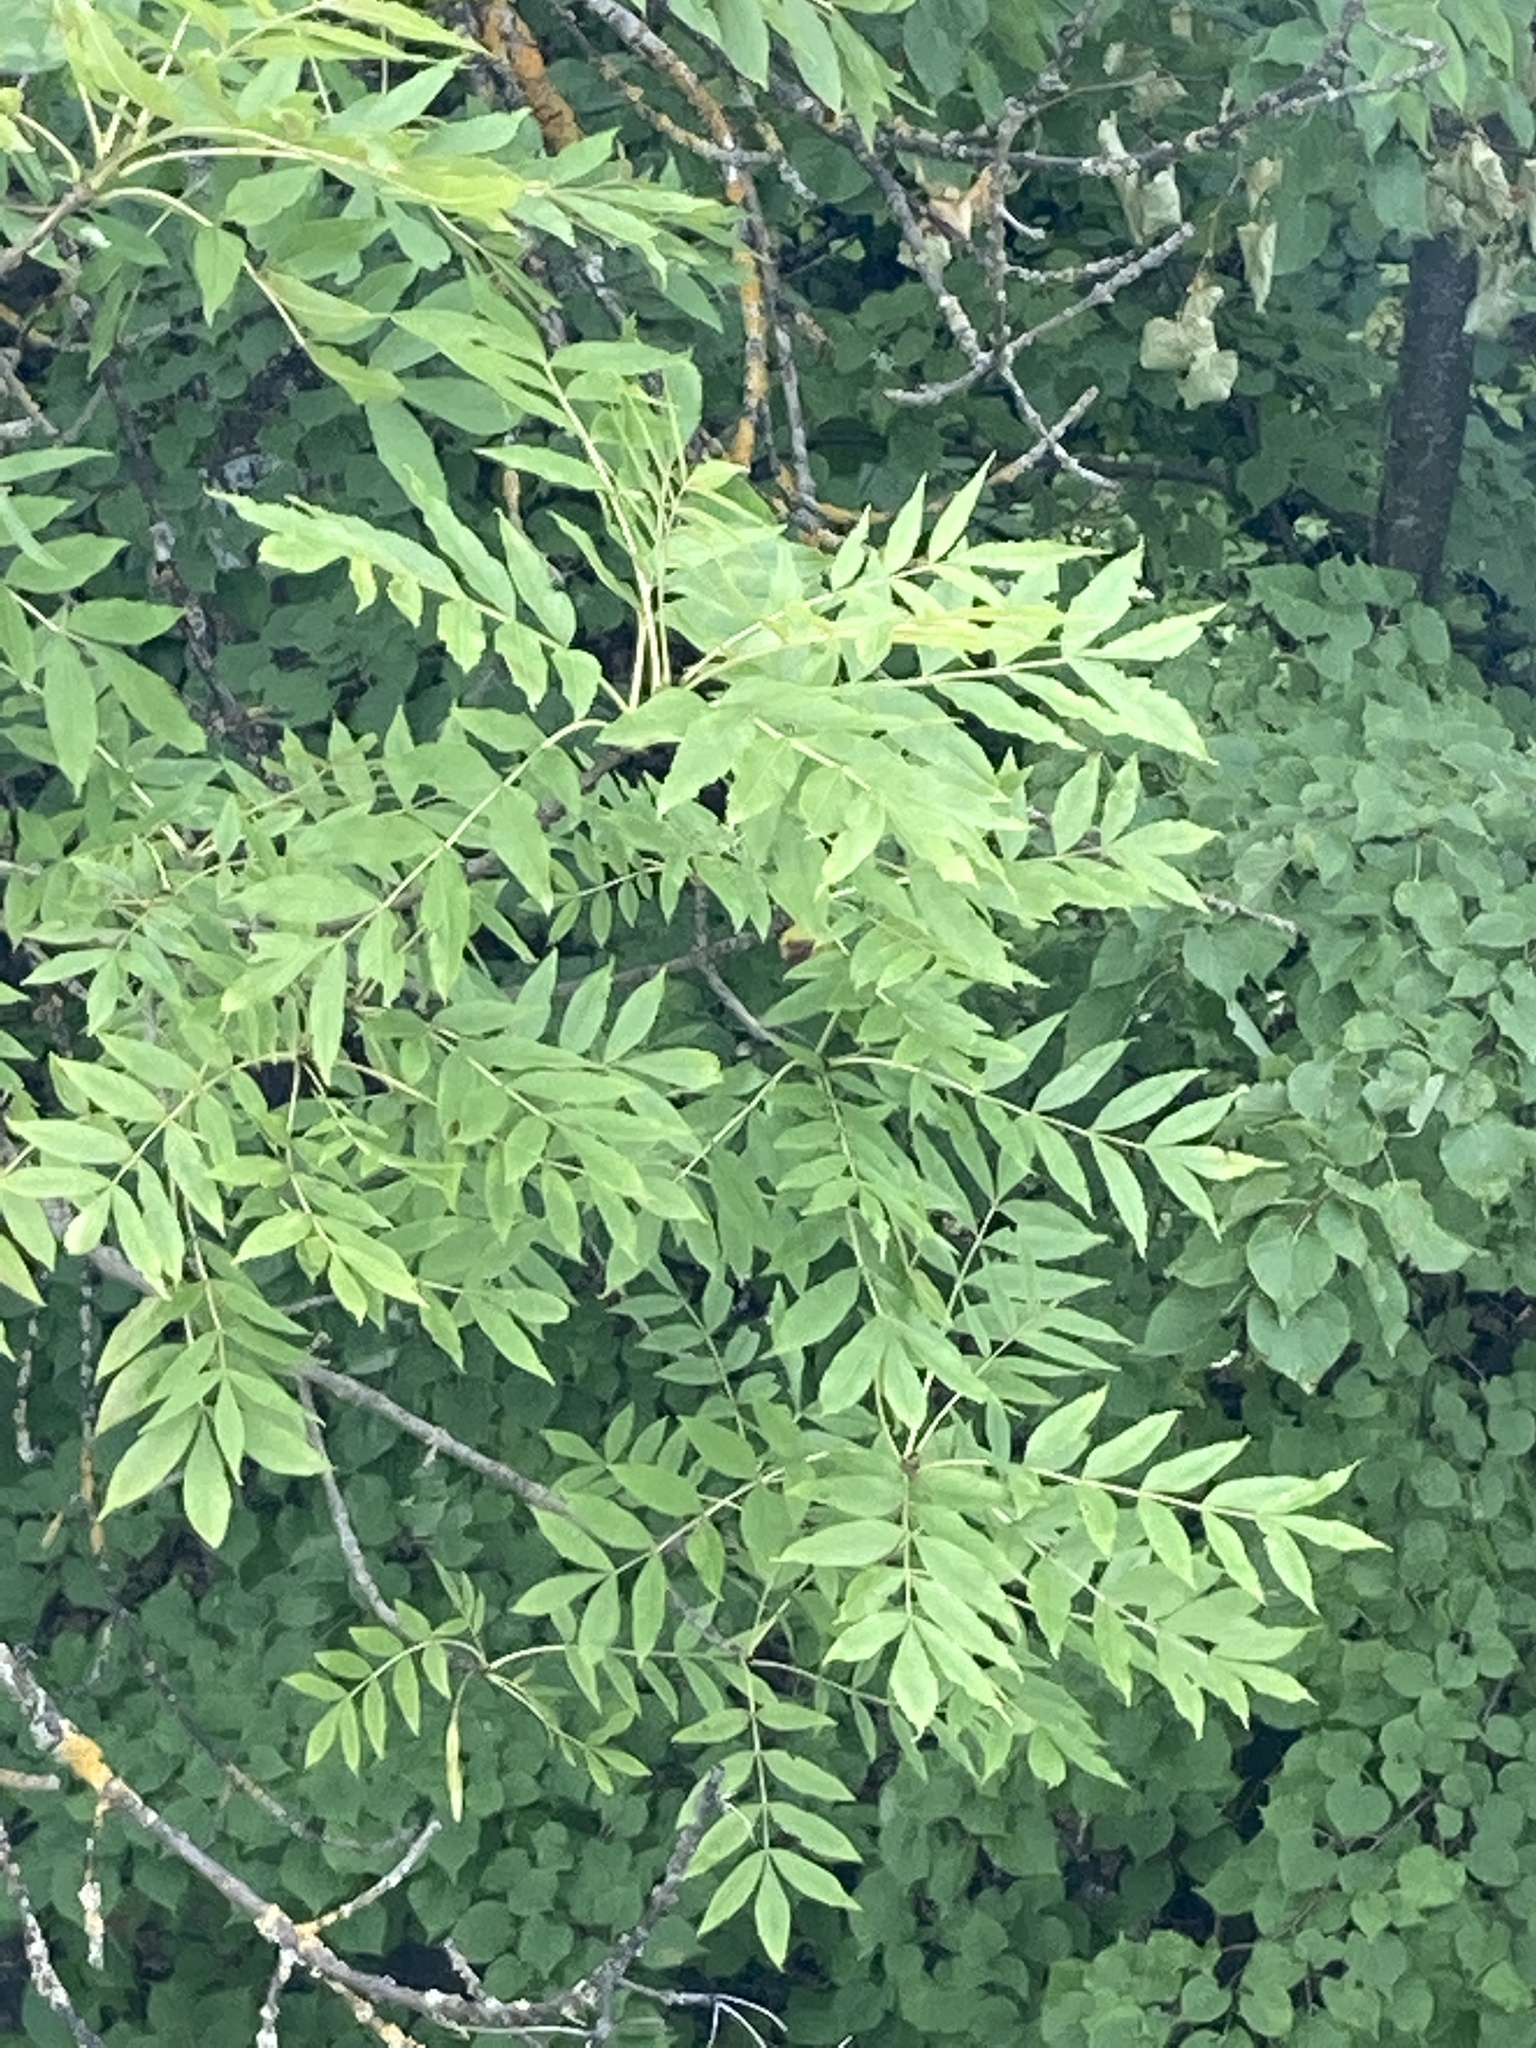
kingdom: Plantae
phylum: Tracheophyta
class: Magnoliopsida
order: Lamiales
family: Oleaceae
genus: Fraxinus
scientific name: Fraxinus excelsior
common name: European ash
